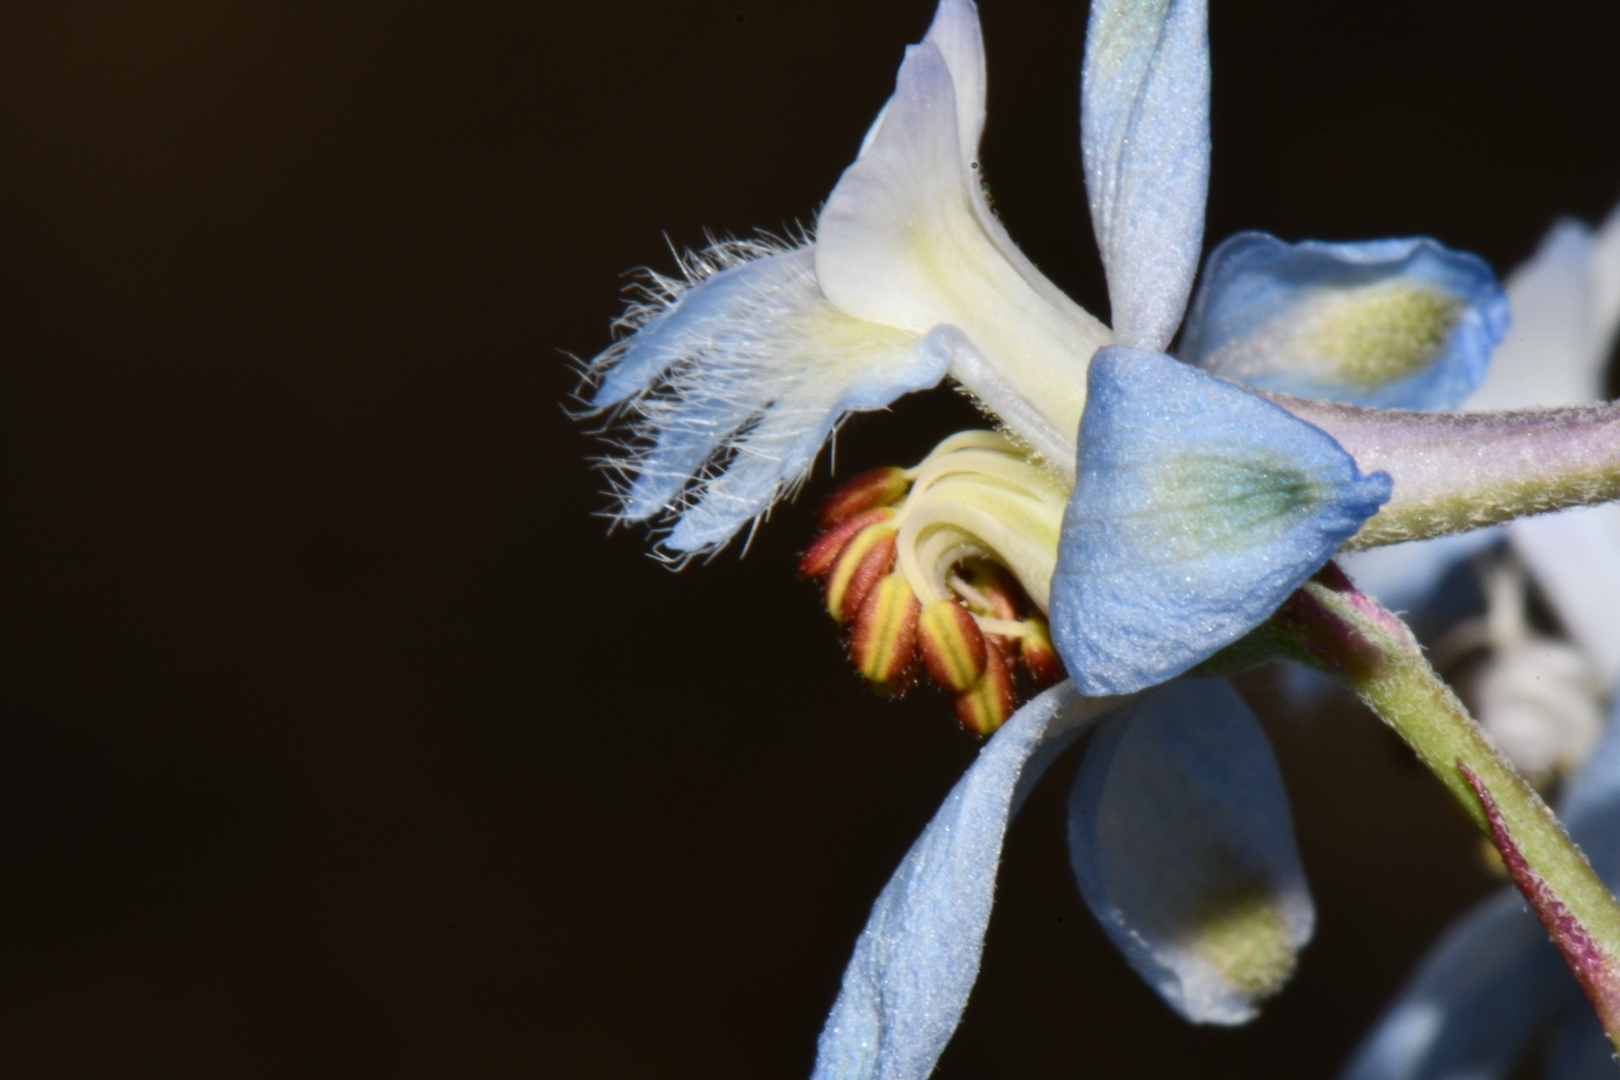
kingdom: Plantae
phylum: Tracheophyta
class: Magnoliopsida
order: Ranunculales
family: Ranunculaceae
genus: Delphinium
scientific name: Delphinium parishii
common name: Apache larkspur
